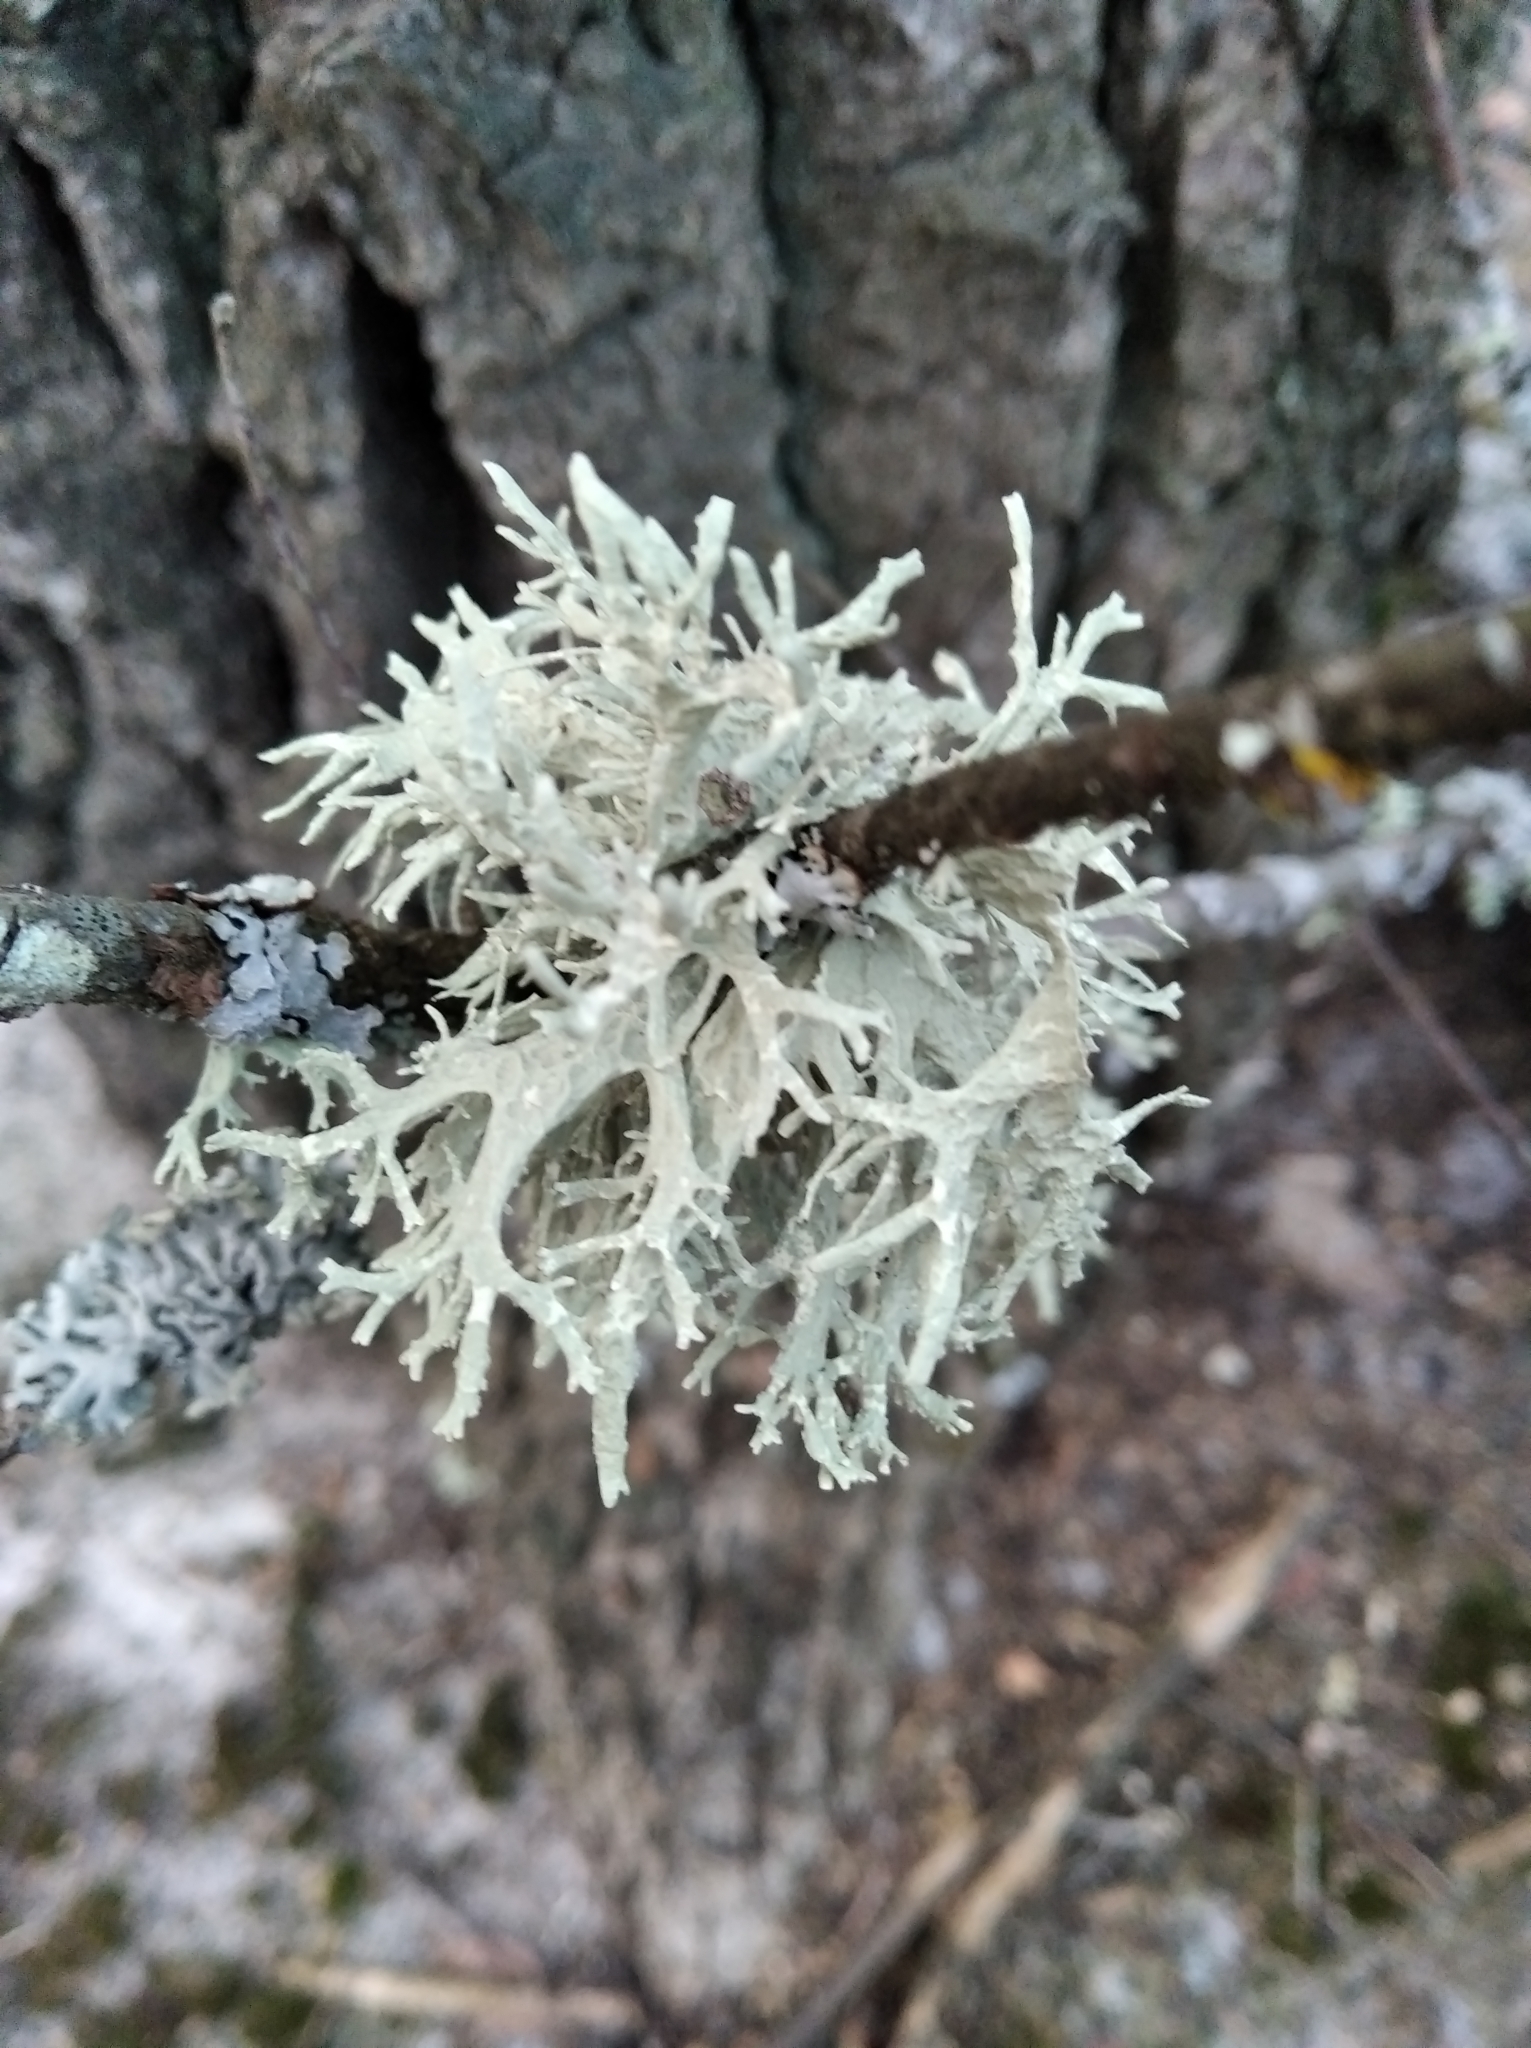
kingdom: Fungi
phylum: Ascomycota
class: Lecanoromycetes
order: Lecanorales
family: Parmeliaceae
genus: Evernia
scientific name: Evernia prunastri
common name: Oak moss
